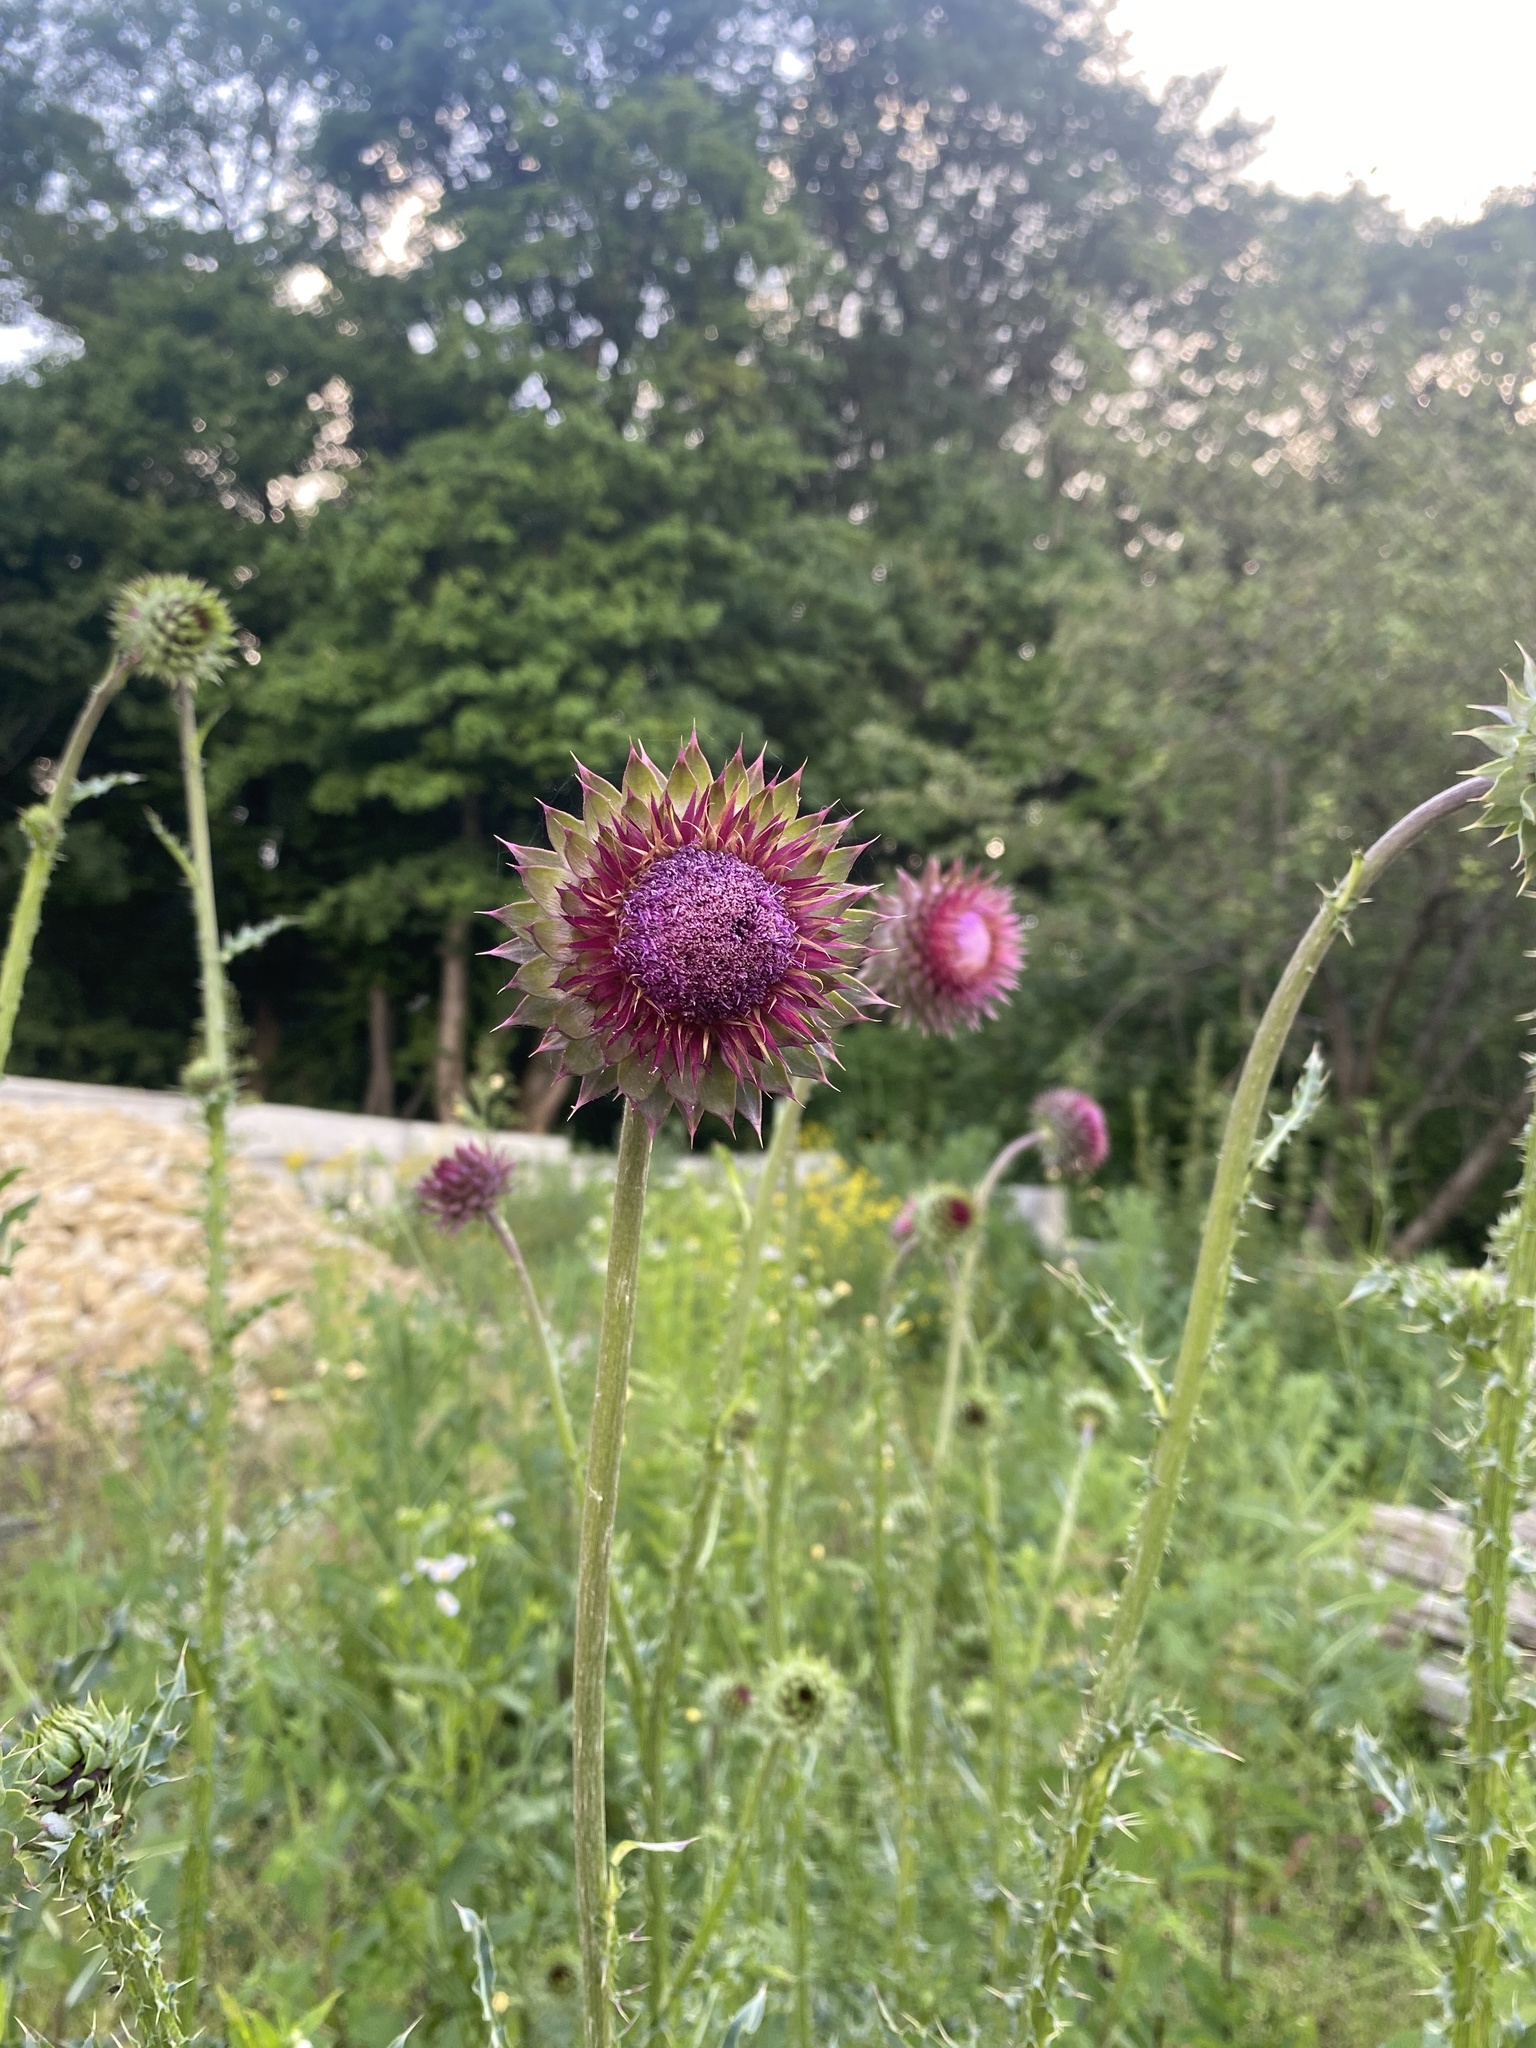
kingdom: Plantae
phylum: Tracheophyta
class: Magnoliopsida
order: Asterales
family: Asteraceae
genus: Carduus
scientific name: Carduus nutans
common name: Musk thistle
